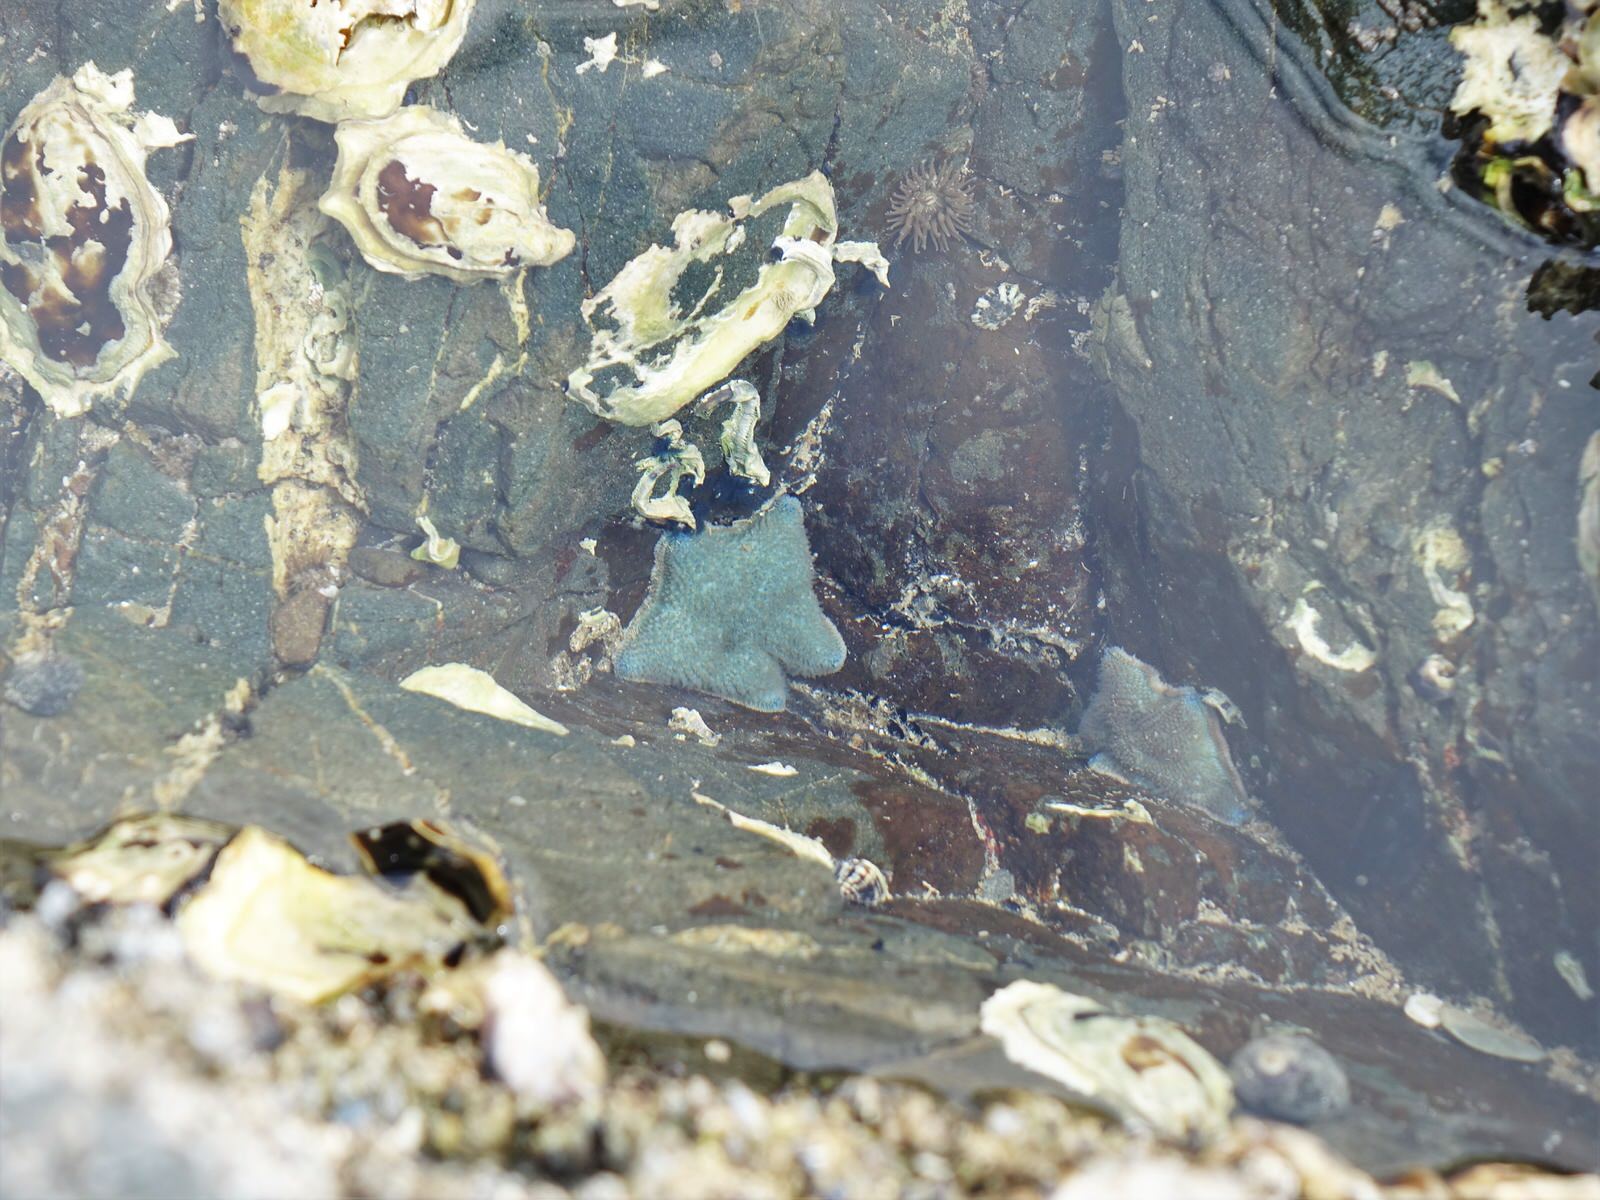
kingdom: Animalia
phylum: Echinodermata
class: Asteroidea
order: Valvatida
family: Asterinidae
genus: Patiriella
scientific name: Patiriella regularis
